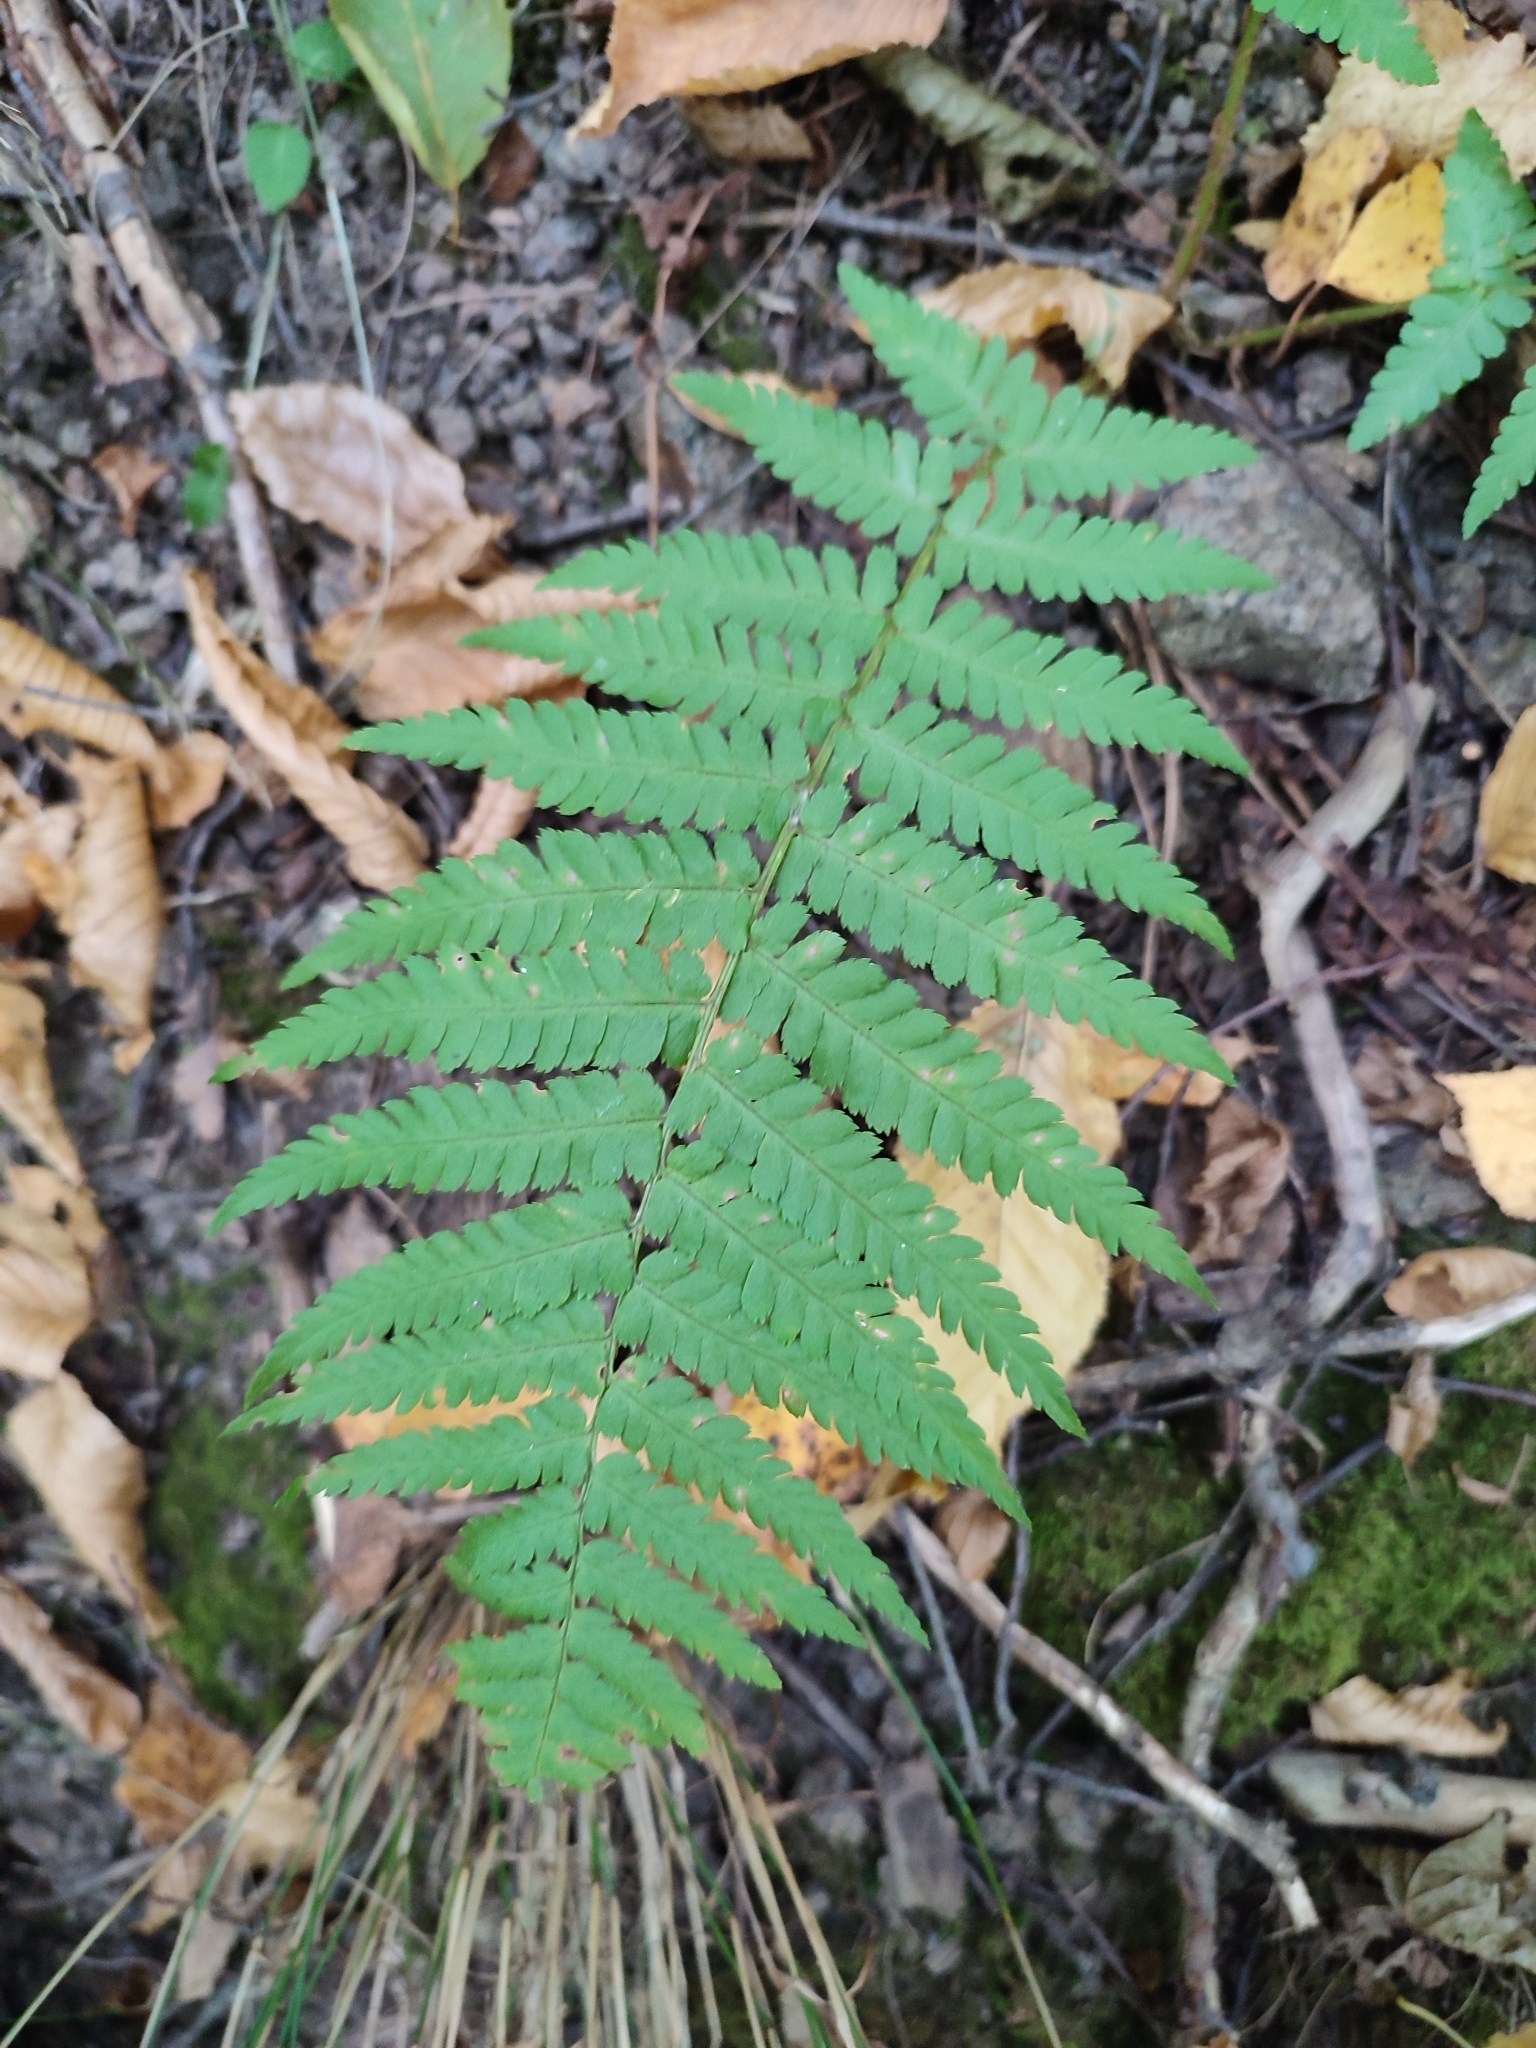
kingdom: Plantae
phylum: Tracheophyta
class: Polypodiopsida
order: Polypodiales
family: Dryopteridaceae
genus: Dryopteris
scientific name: Dryopteris filix-mas
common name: Male fern
